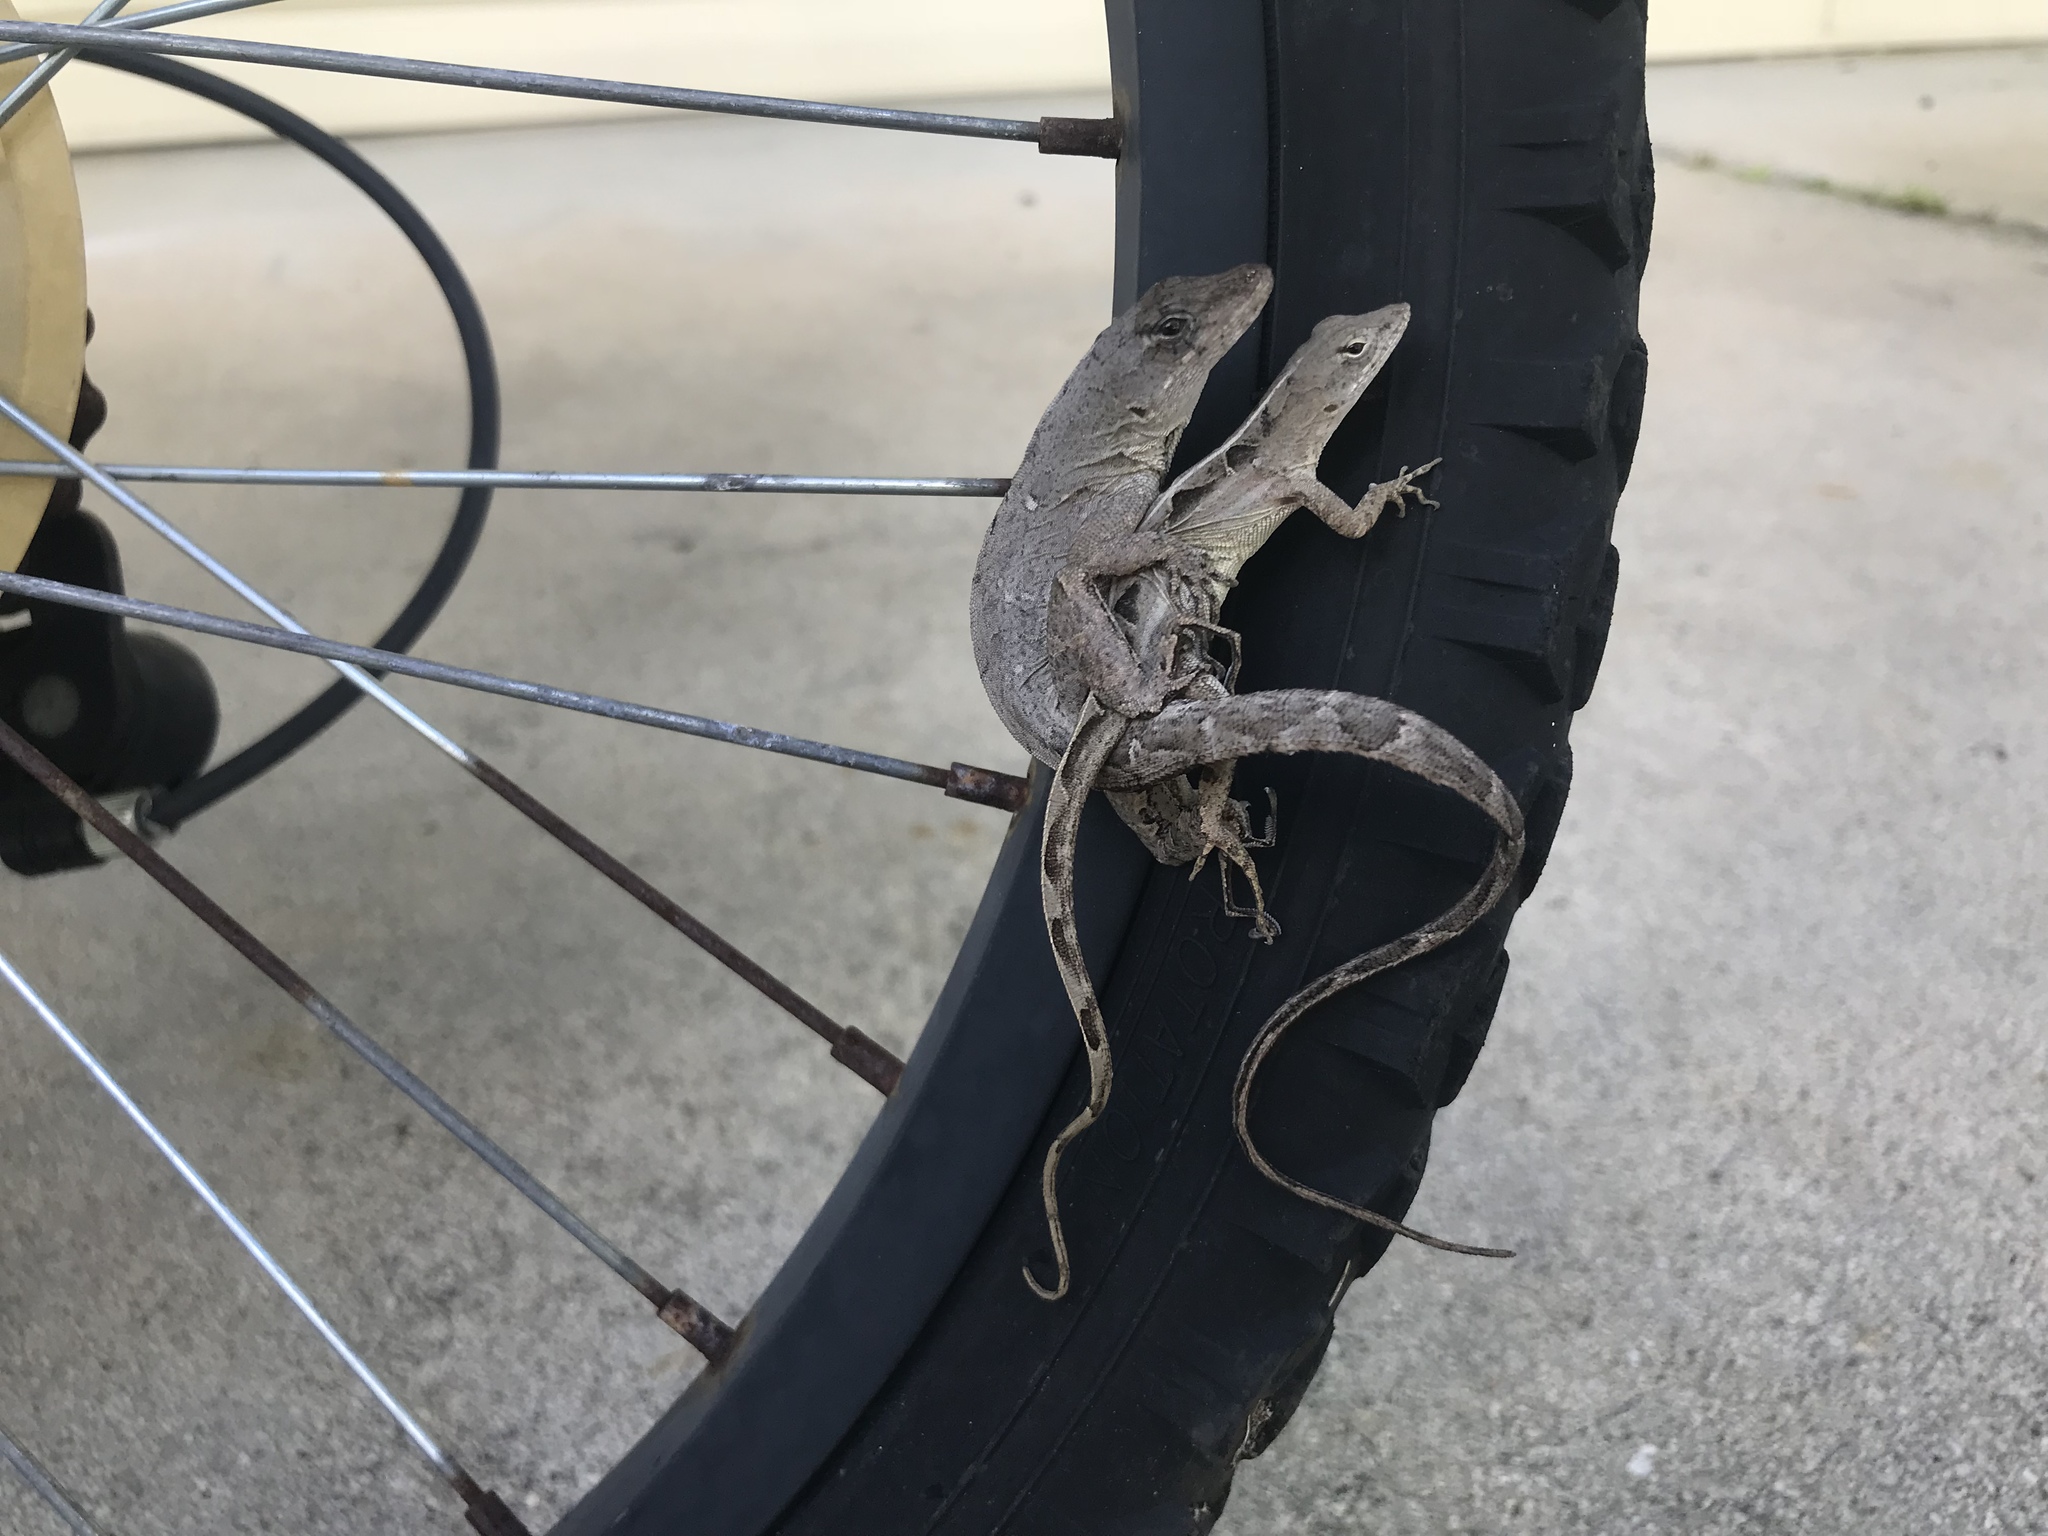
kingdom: Animalia
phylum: Chordata
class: Squamata
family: Dactyloidae
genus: Anolis
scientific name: Anolis sagrei
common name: Brown anole
